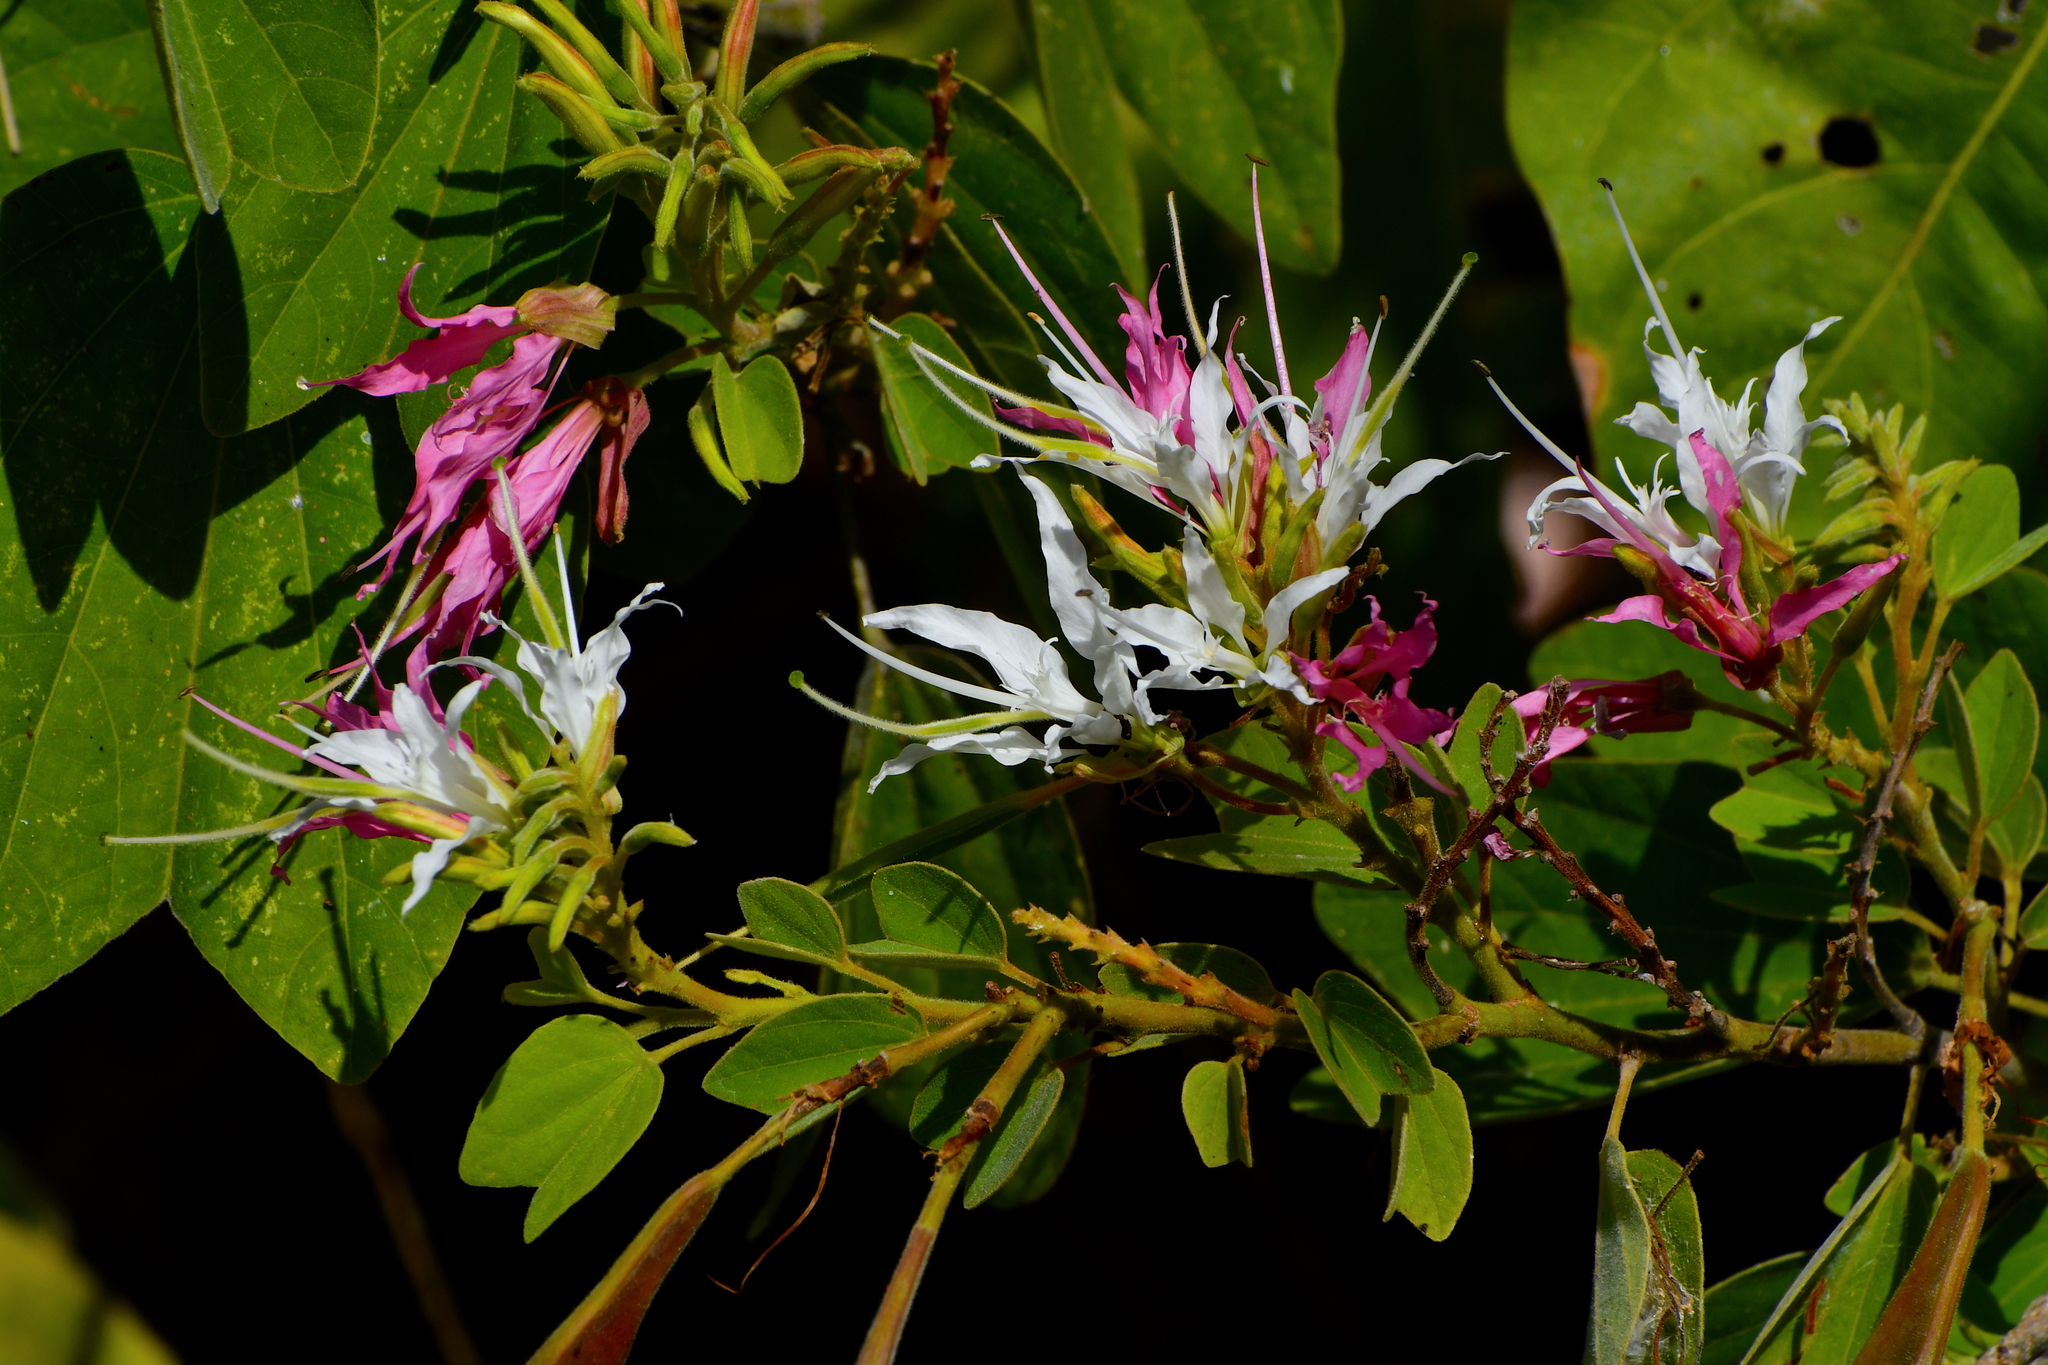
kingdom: Plantae
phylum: Tracheophyta
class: Magnoliopsida
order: Fabales
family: Fabaceae
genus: Bauhinia
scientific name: Bauhinia divaricata
